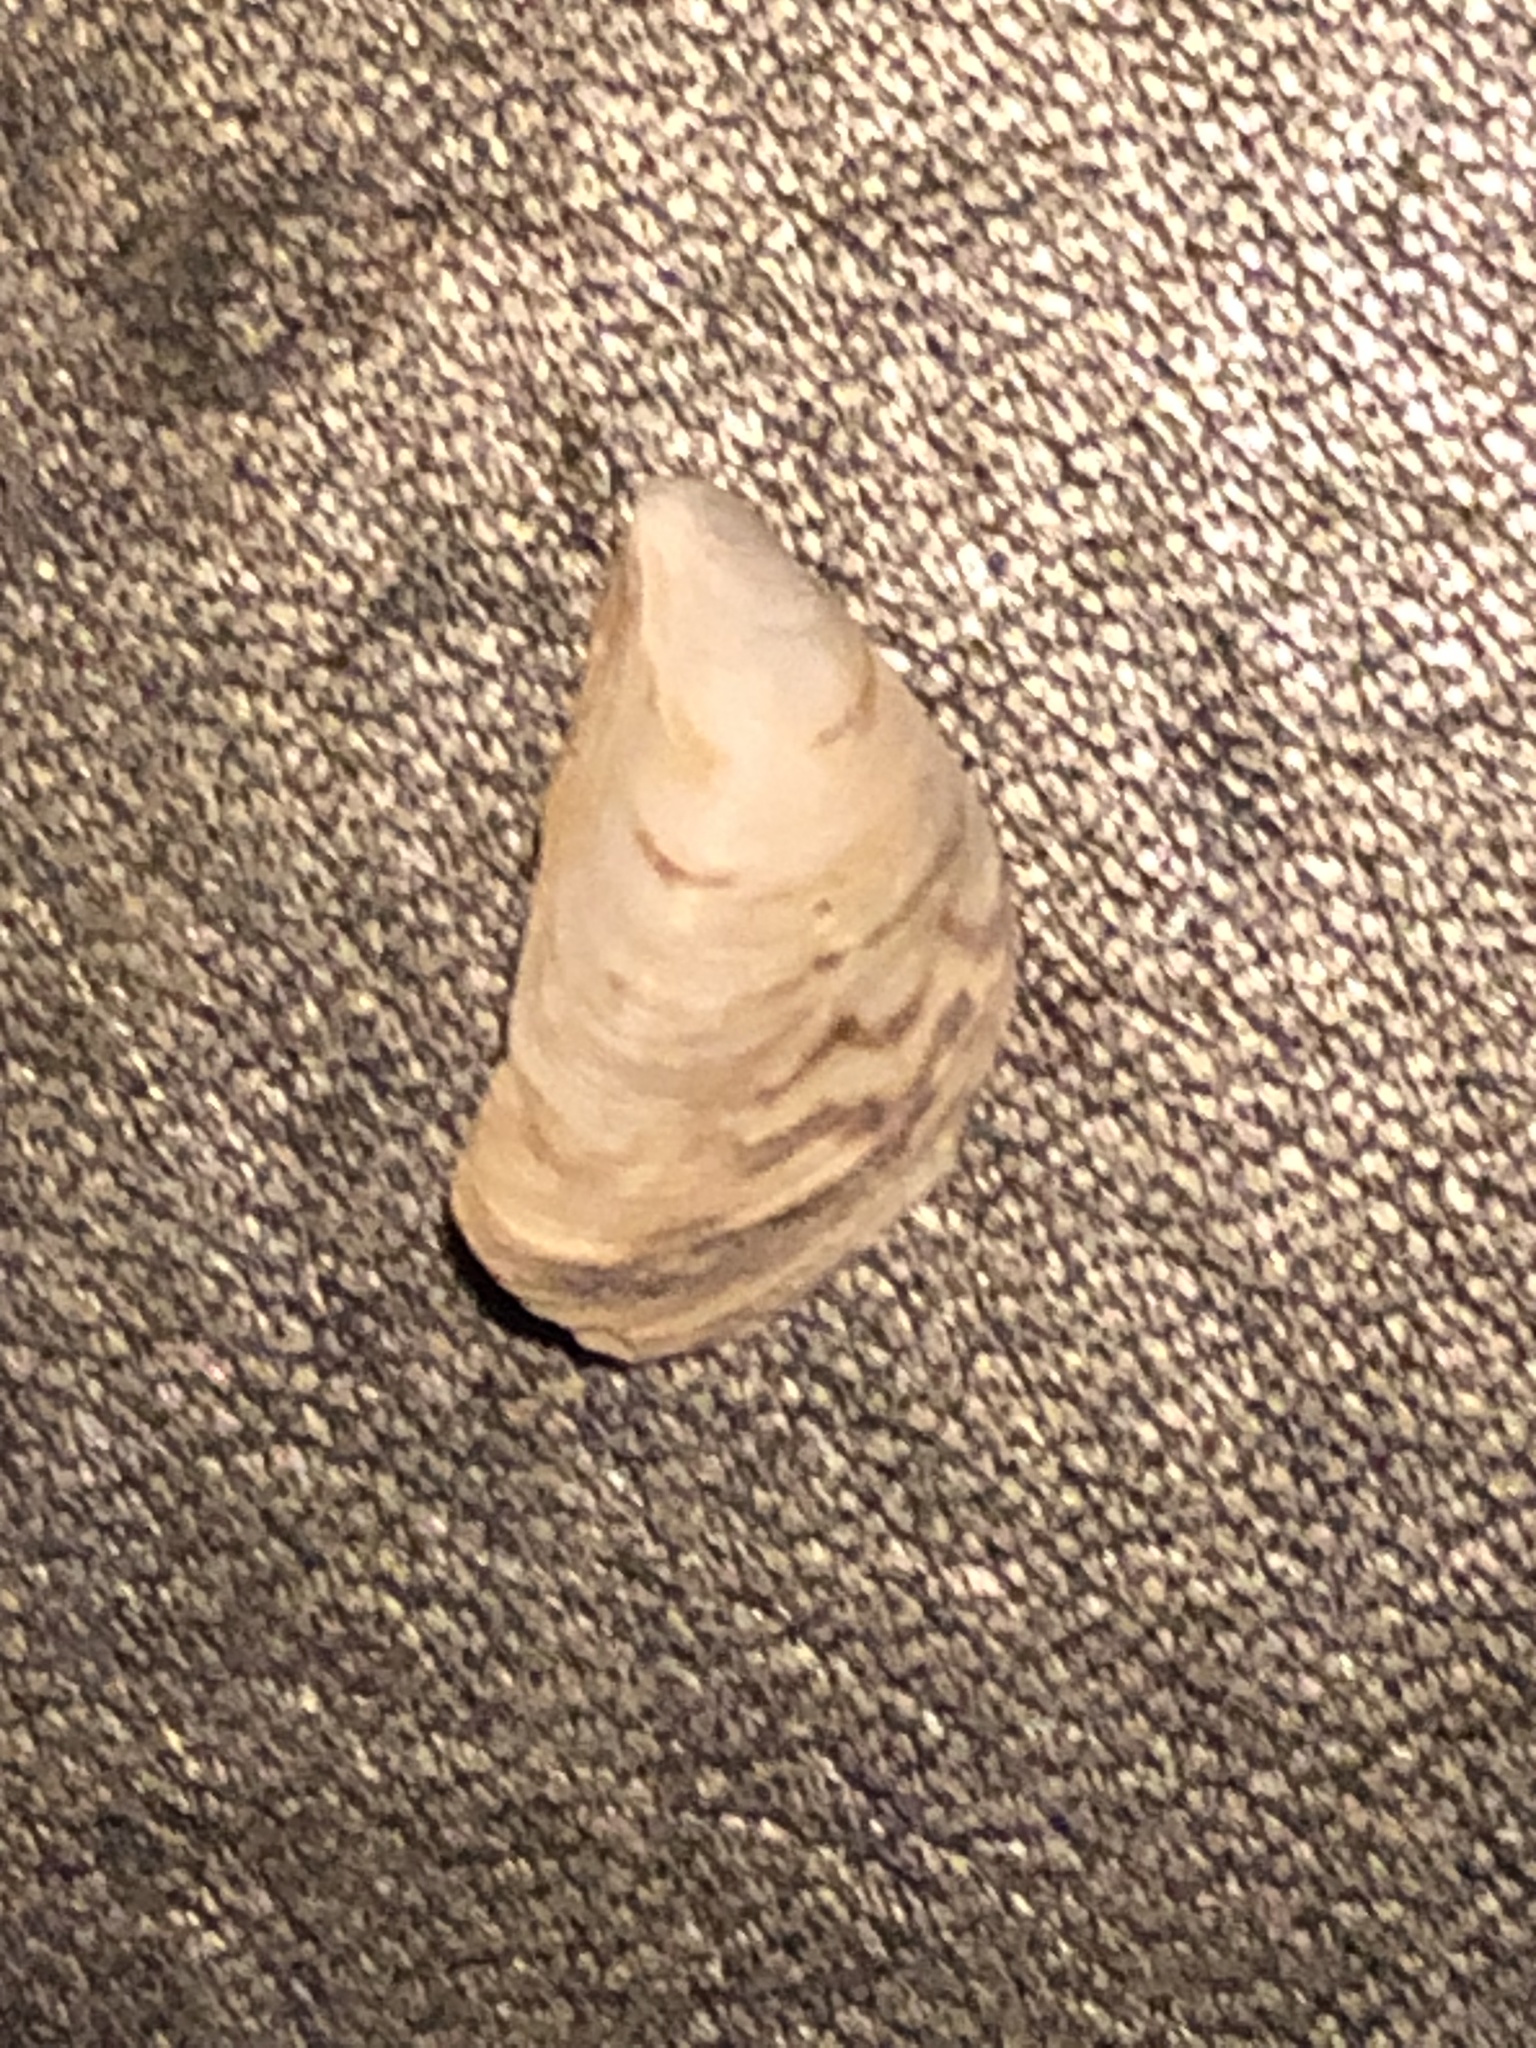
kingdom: Animalia
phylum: Mollusca
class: Bivalvia
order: Myida
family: Dreissenidae
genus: Dreissena
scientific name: Dreissena bugensis
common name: Quagga mussel
